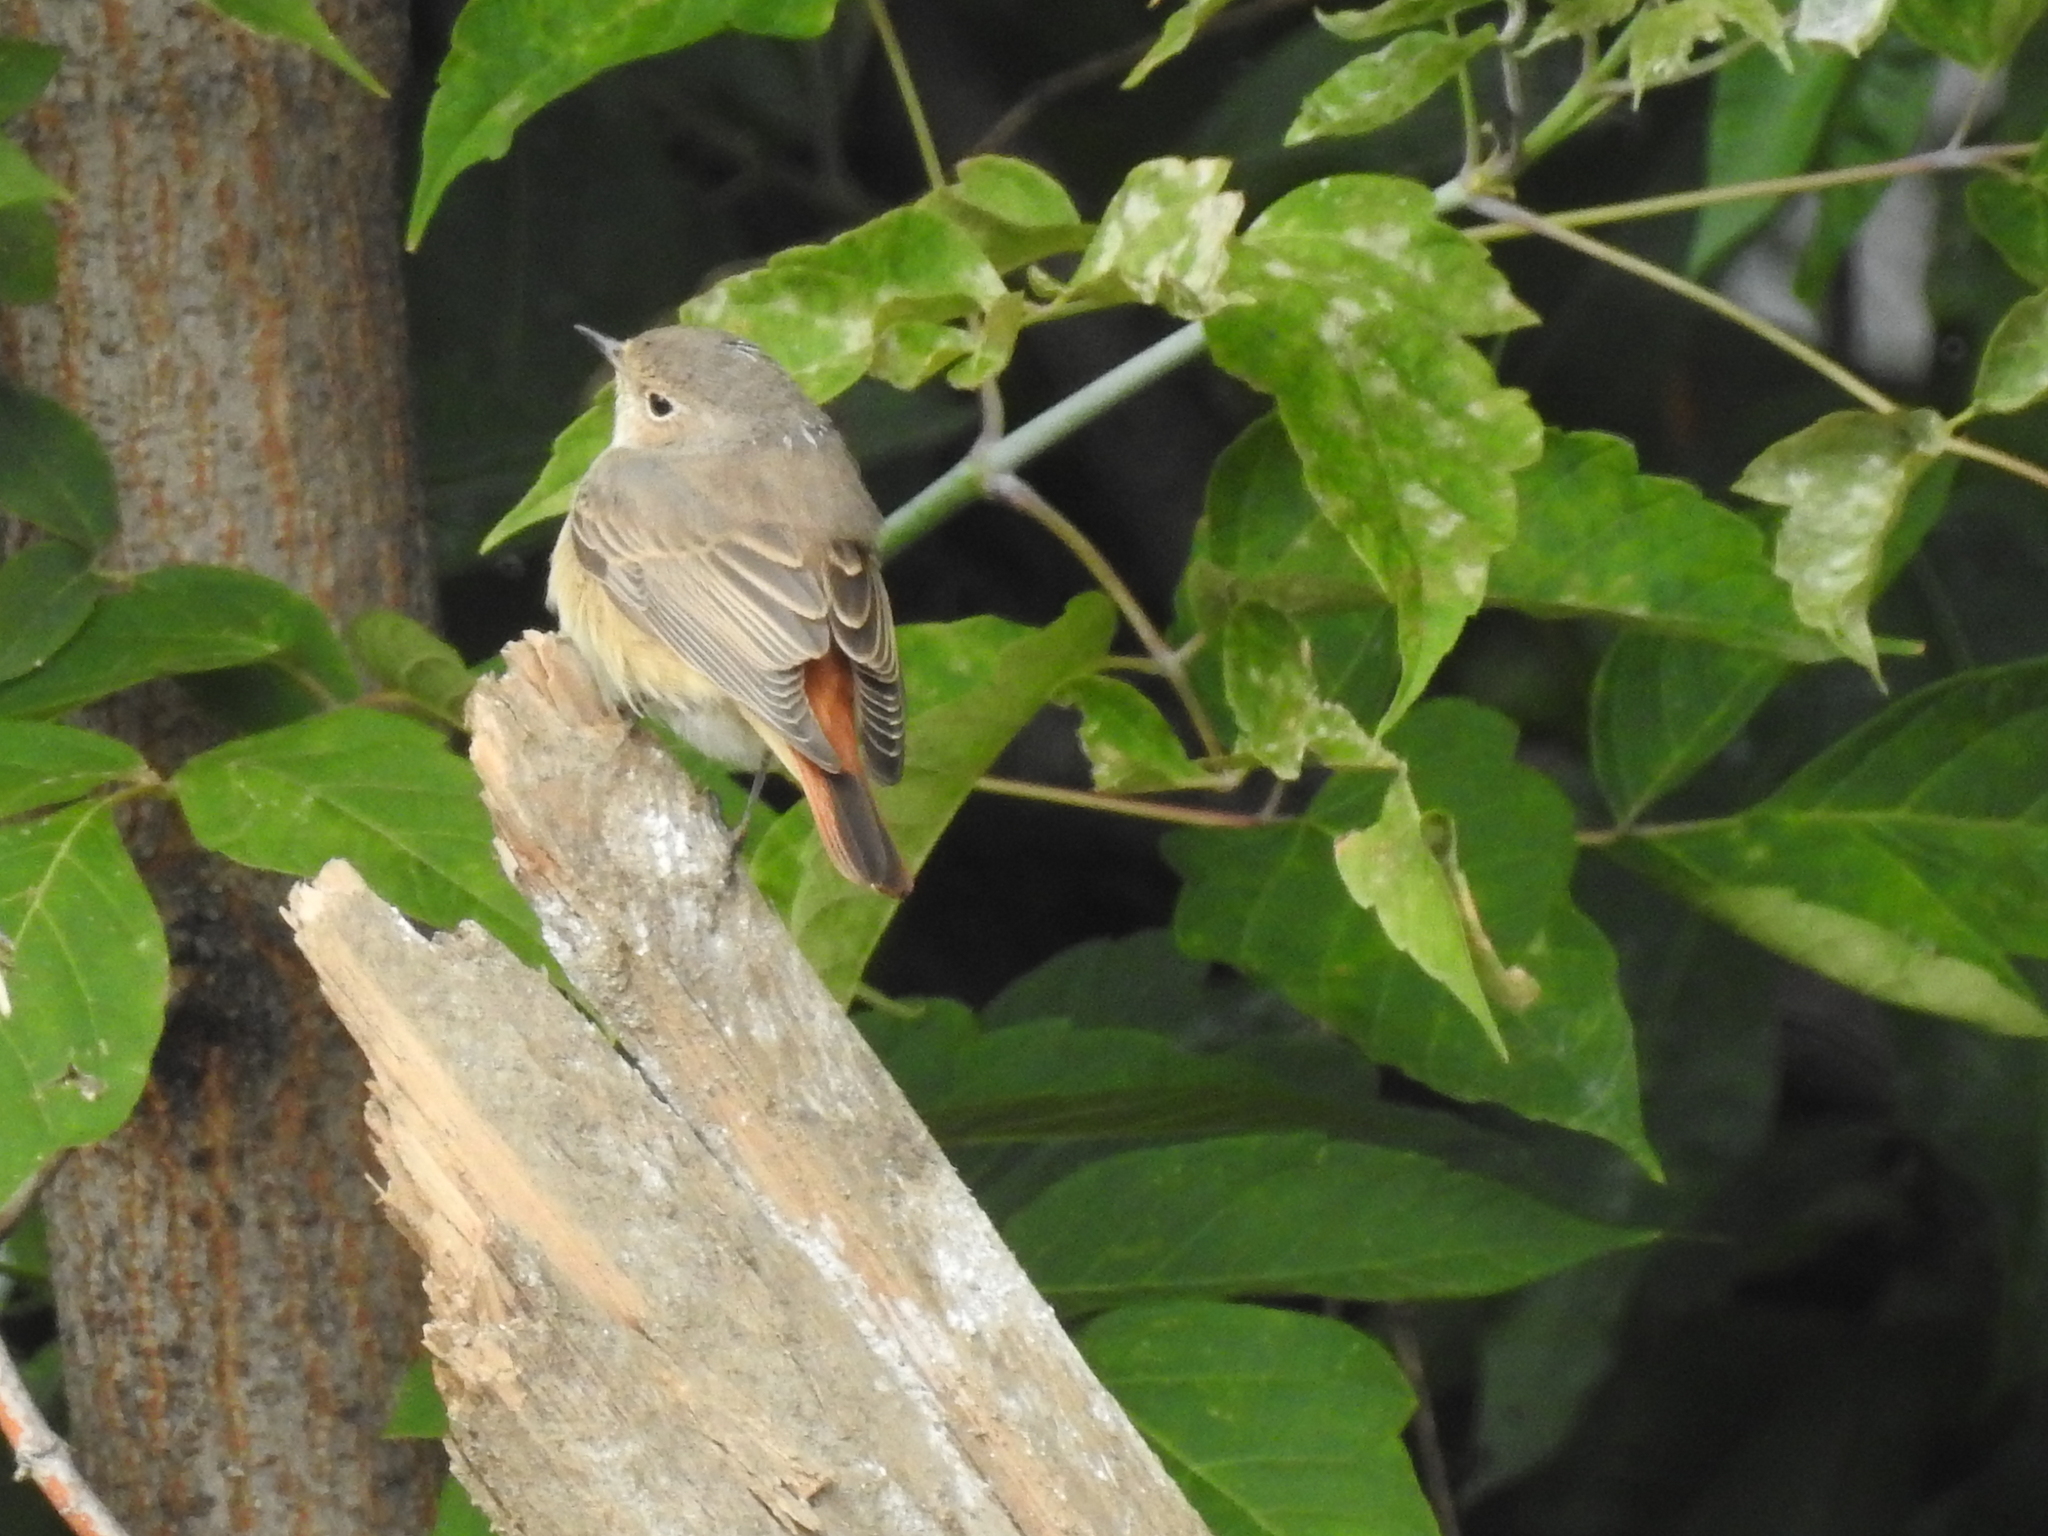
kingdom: Animalia
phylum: Chordata
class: Aves
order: Passeriformes
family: Muscicapidae
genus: Phoenicurus
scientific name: Phoenicurus phoenicurus
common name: Common redstart
